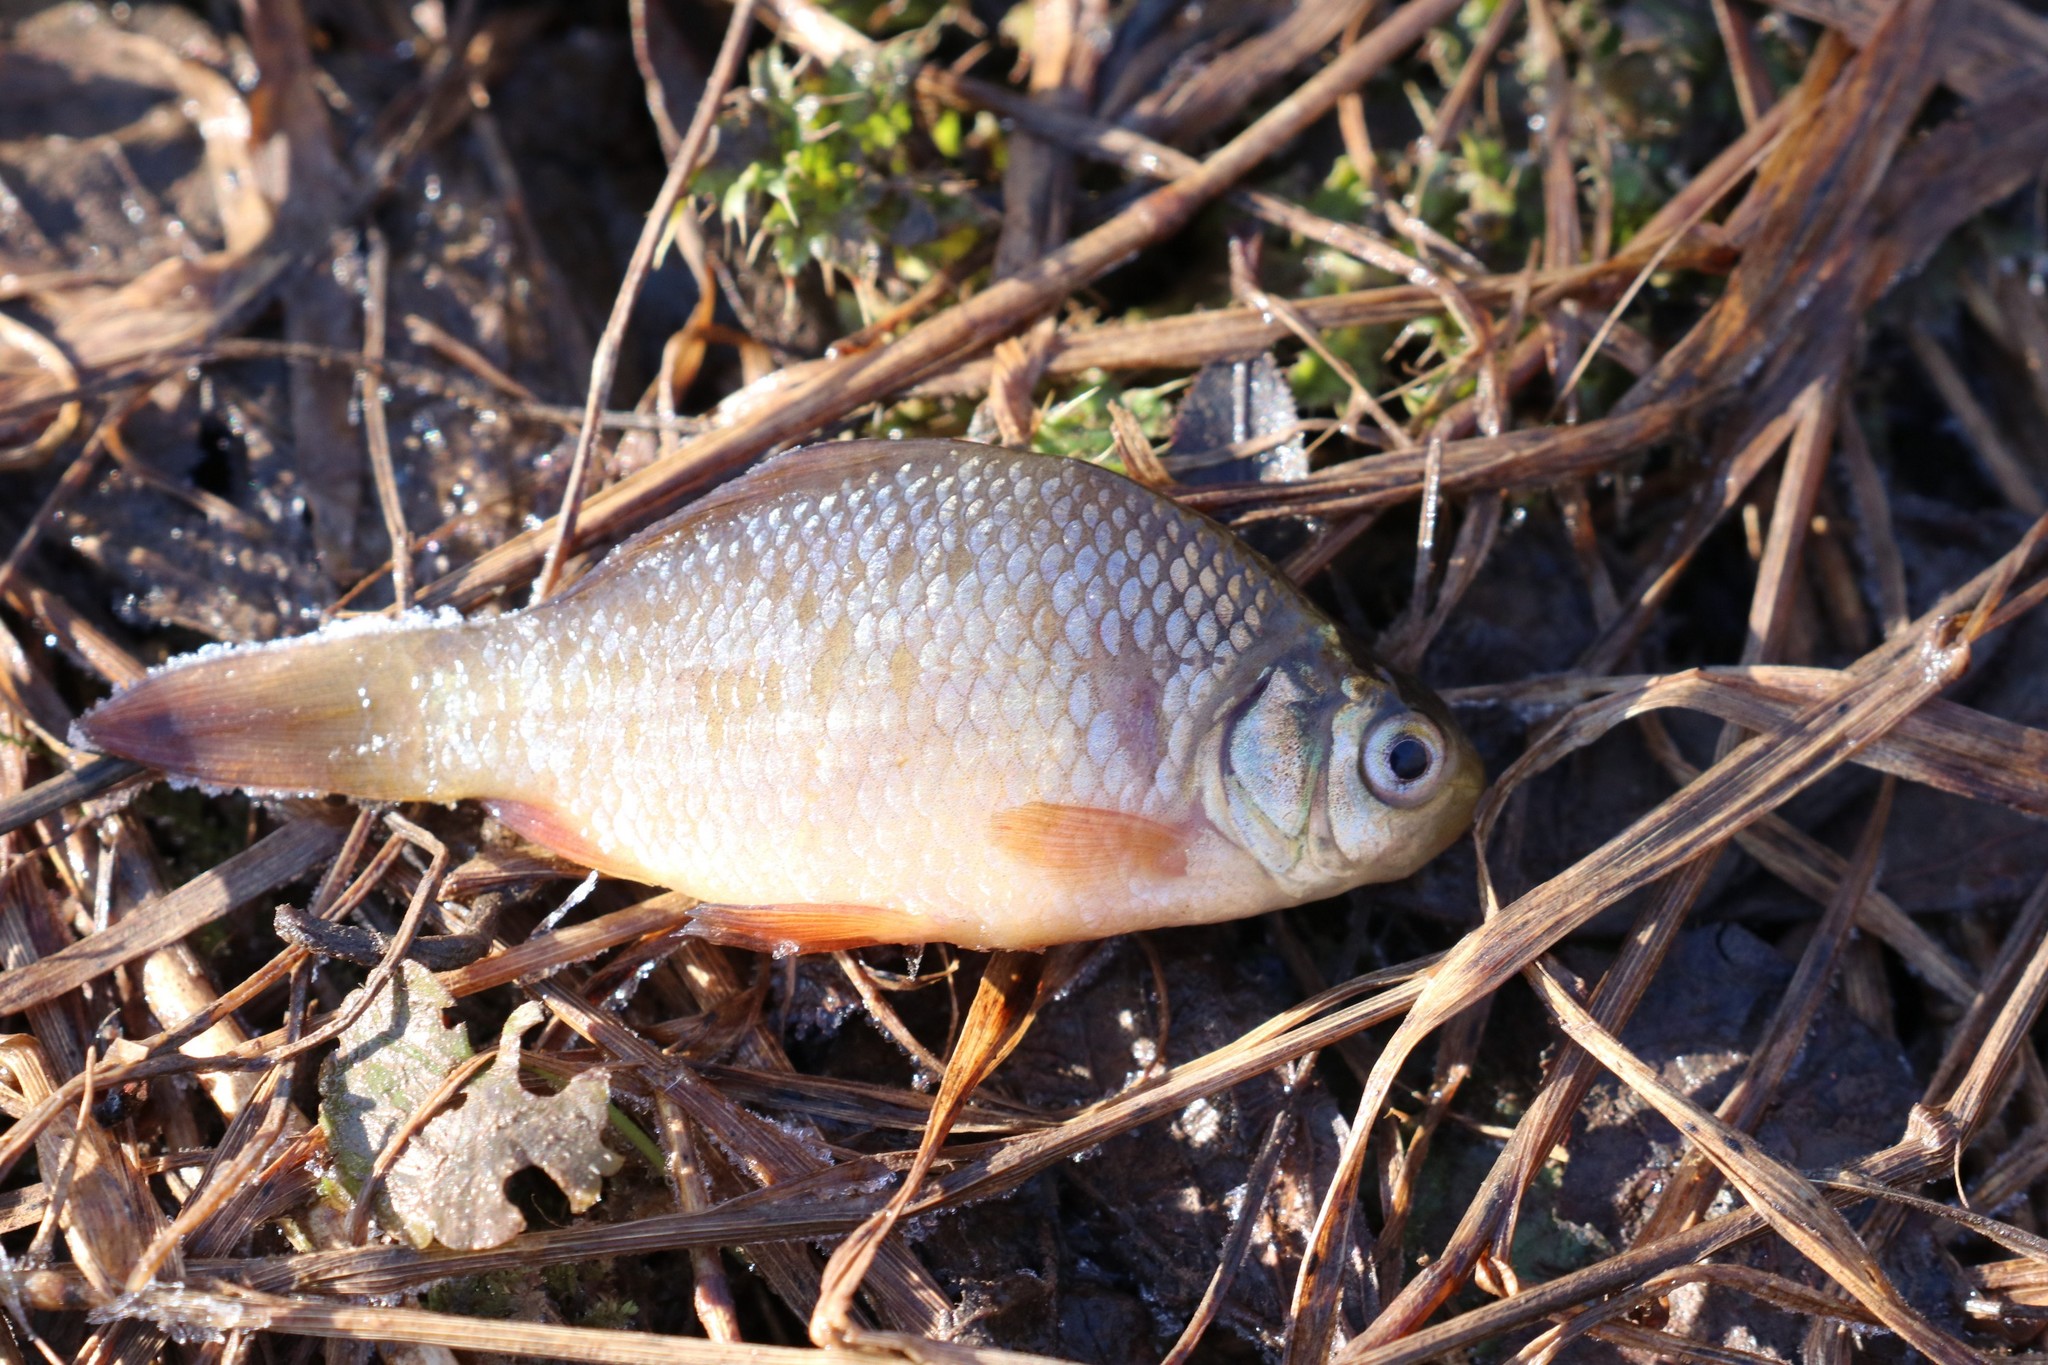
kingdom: Animalia
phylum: Chordata
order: Cypriniformes
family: Cyprinidae
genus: Carassius
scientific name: Carassius gibelio
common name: Prussian carp
